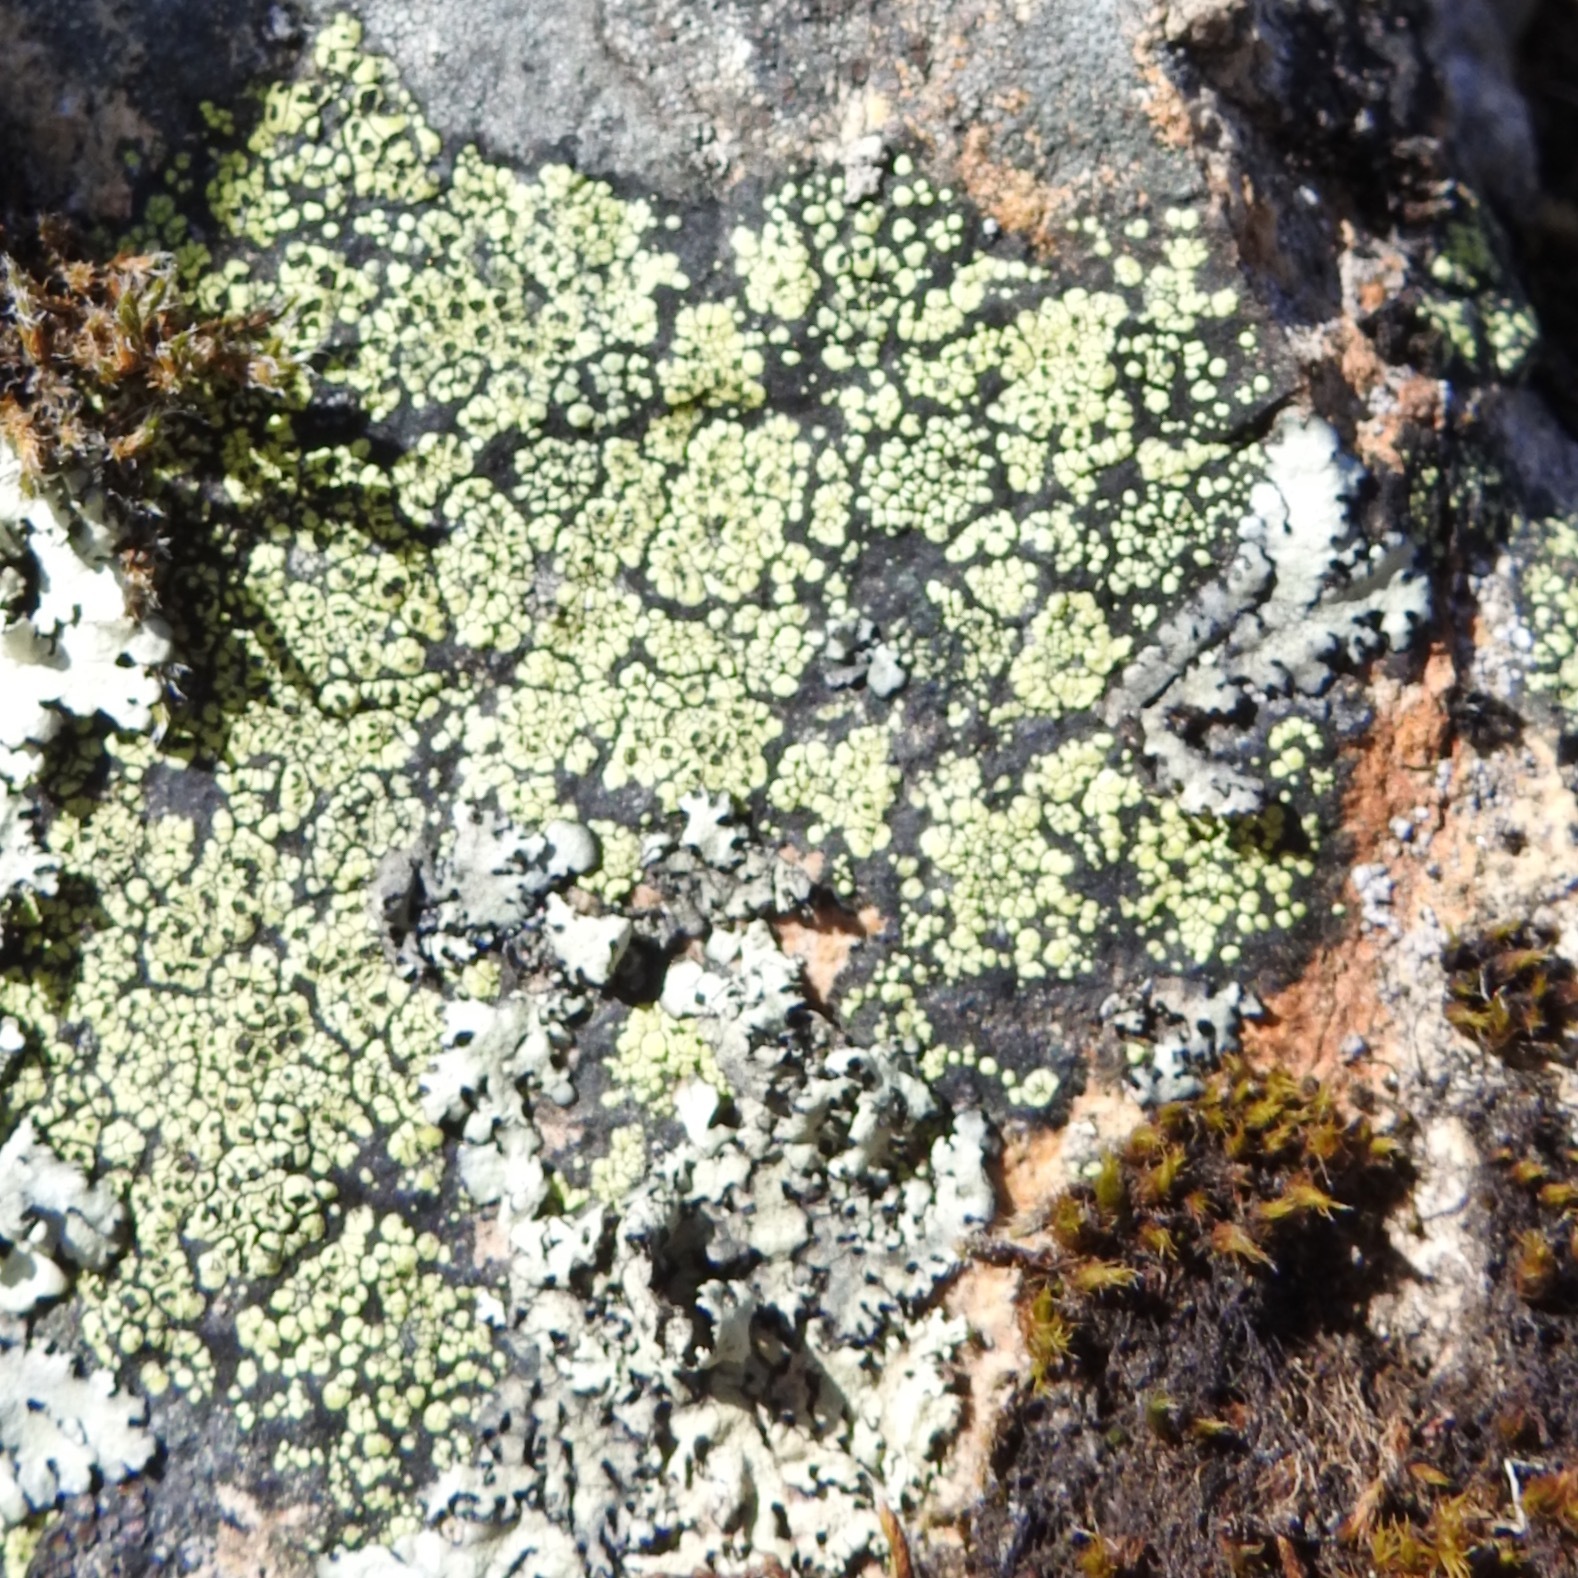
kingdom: Fungi
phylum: Ascomycota
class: Lecanoromycetes
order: Rhizocarpales
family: Rhizocarpaceae
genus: Rhizocarpon
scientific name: Rhizocarpon geographicum
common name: Yellow map lichen
